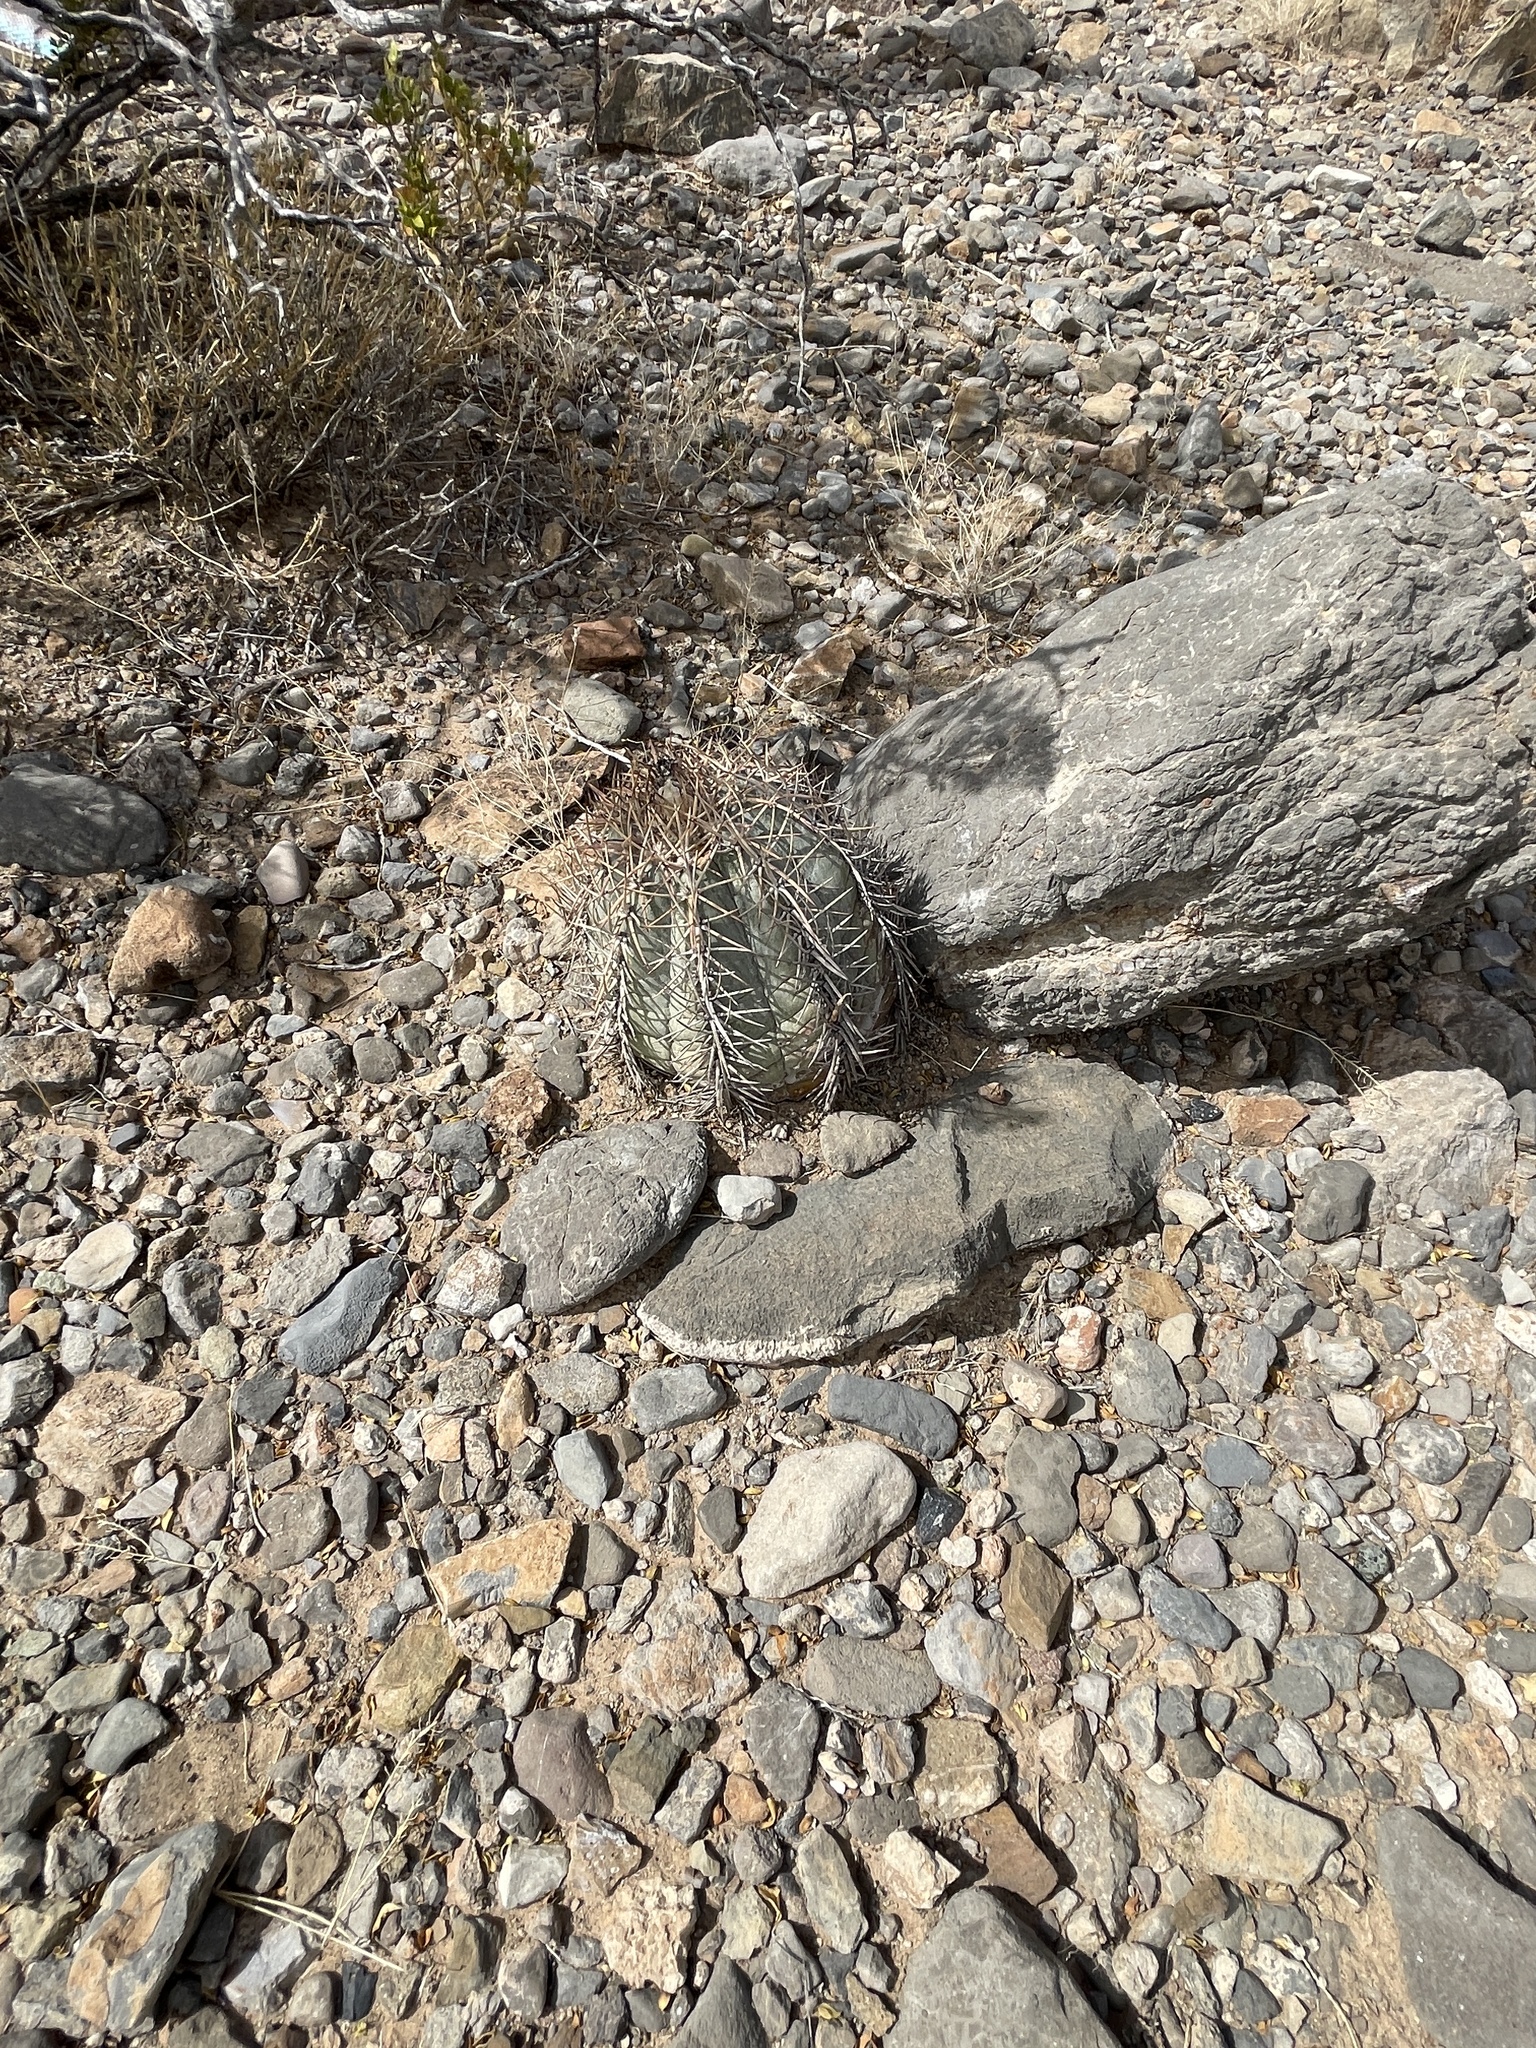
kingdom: Plantae
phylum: Tracheophyta
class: Magnoliopsida
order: Caryophyllales
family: Cactaceae
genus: Echinocactus
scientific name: Echinocactus horizonthalonius
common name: Devilshead
